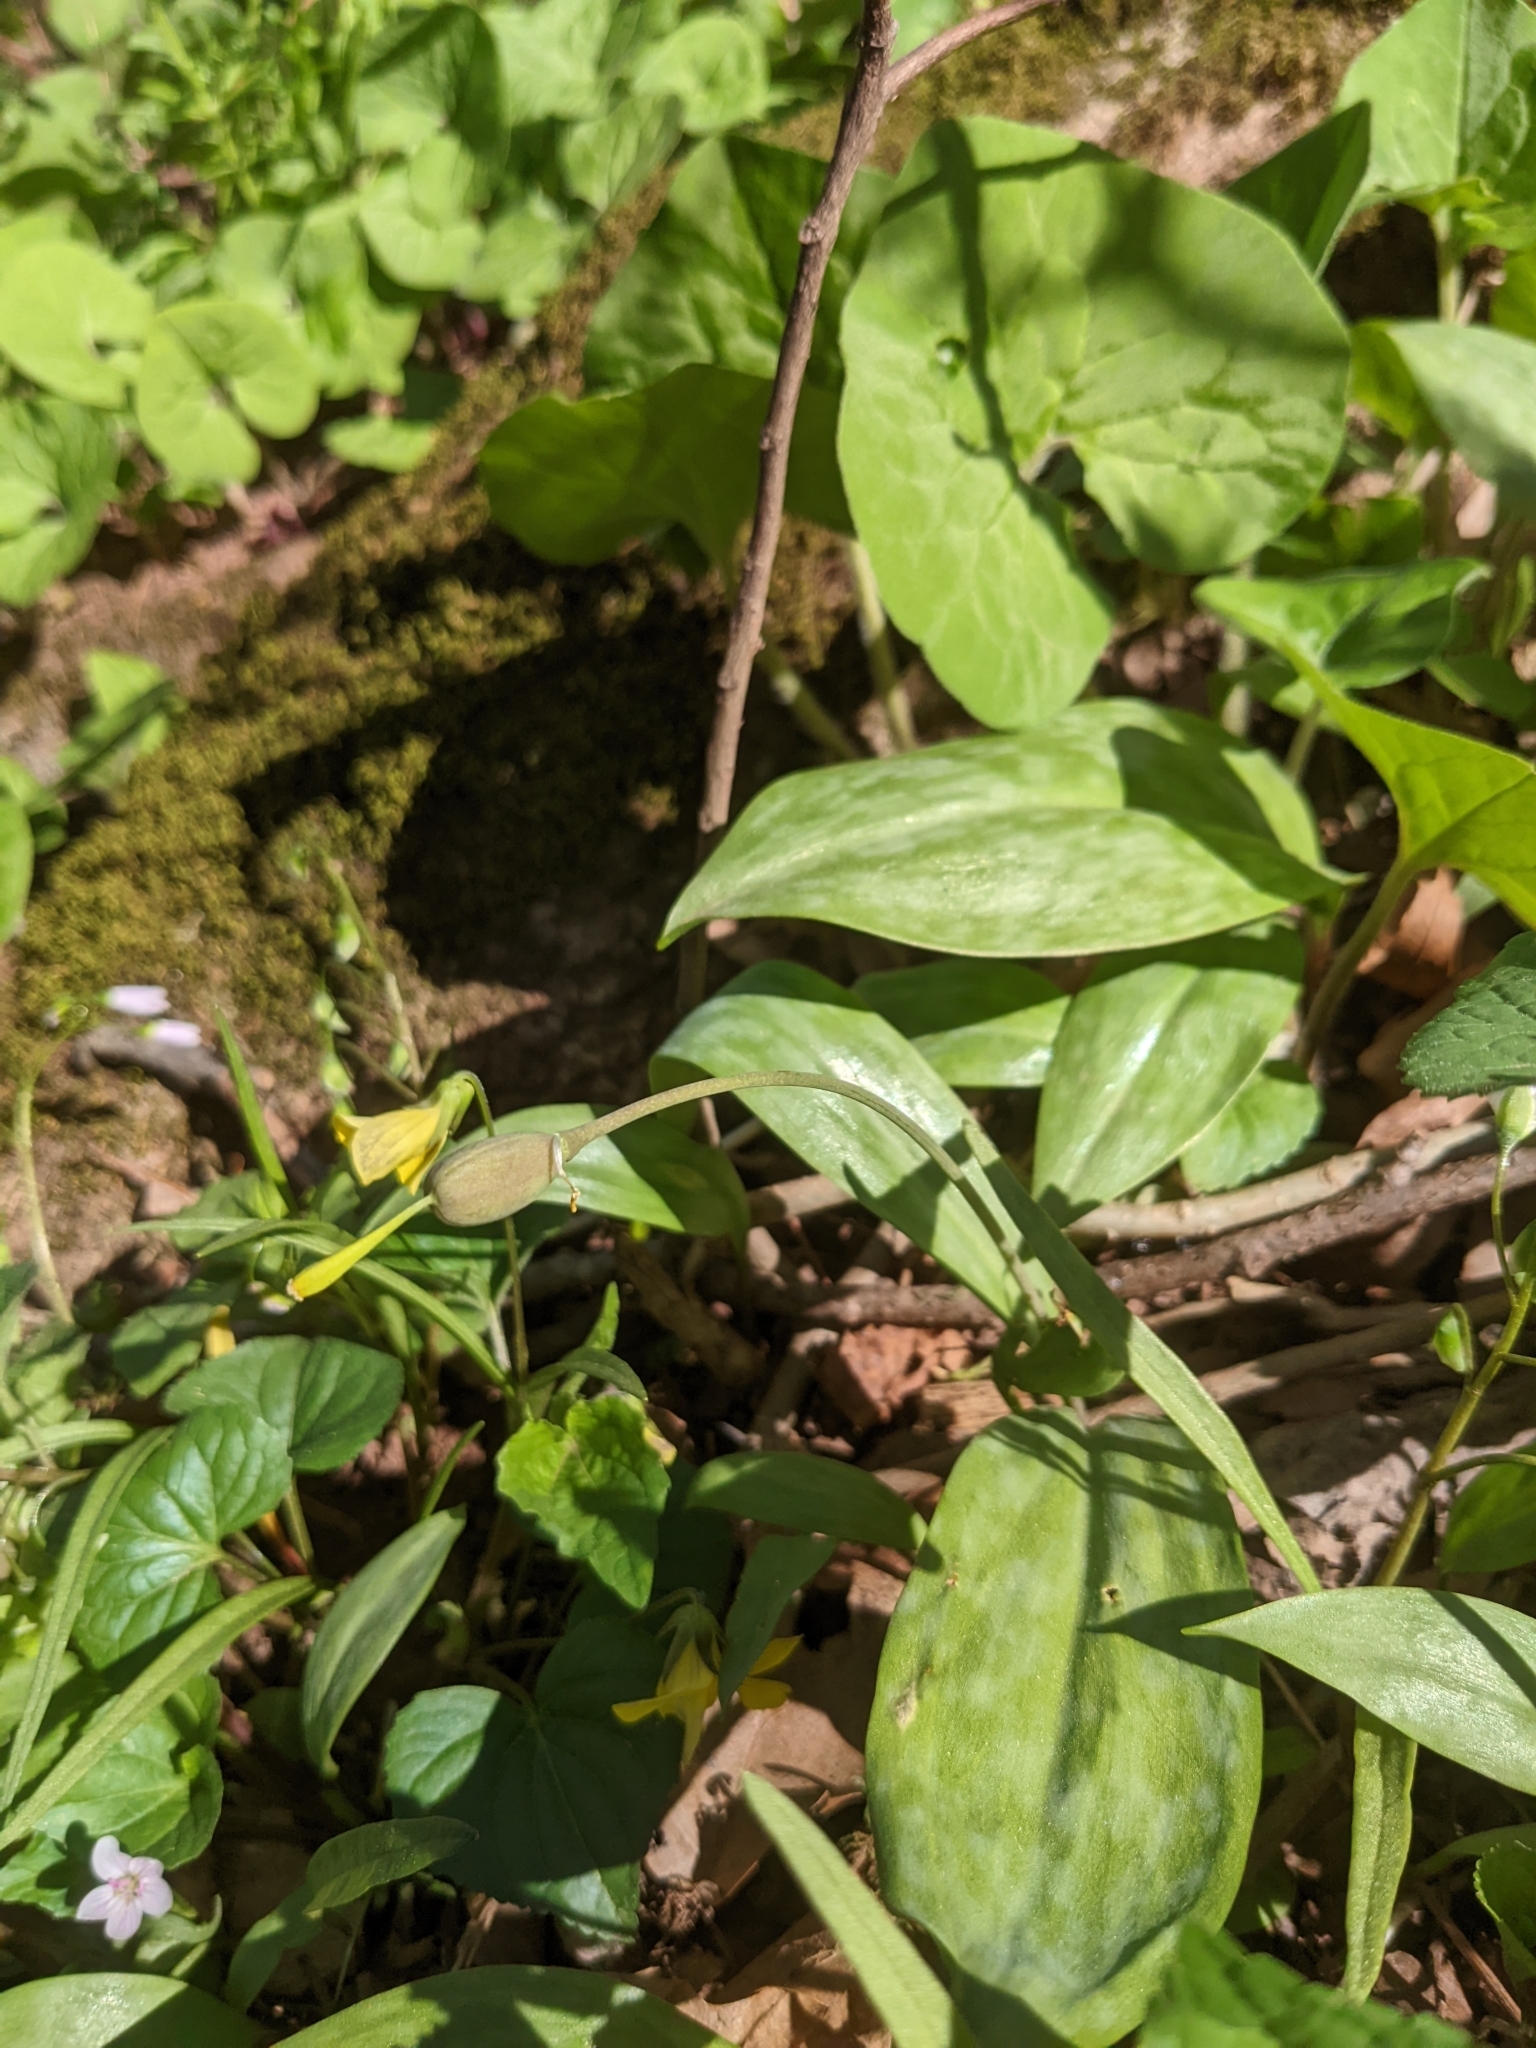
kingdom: Plantae
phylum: Tracheophyta
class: Liliopsida
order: Liliales
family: Liliaceae
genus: Erythronium
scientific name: Erythronium americanum
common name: Yellow adder's-tongue
